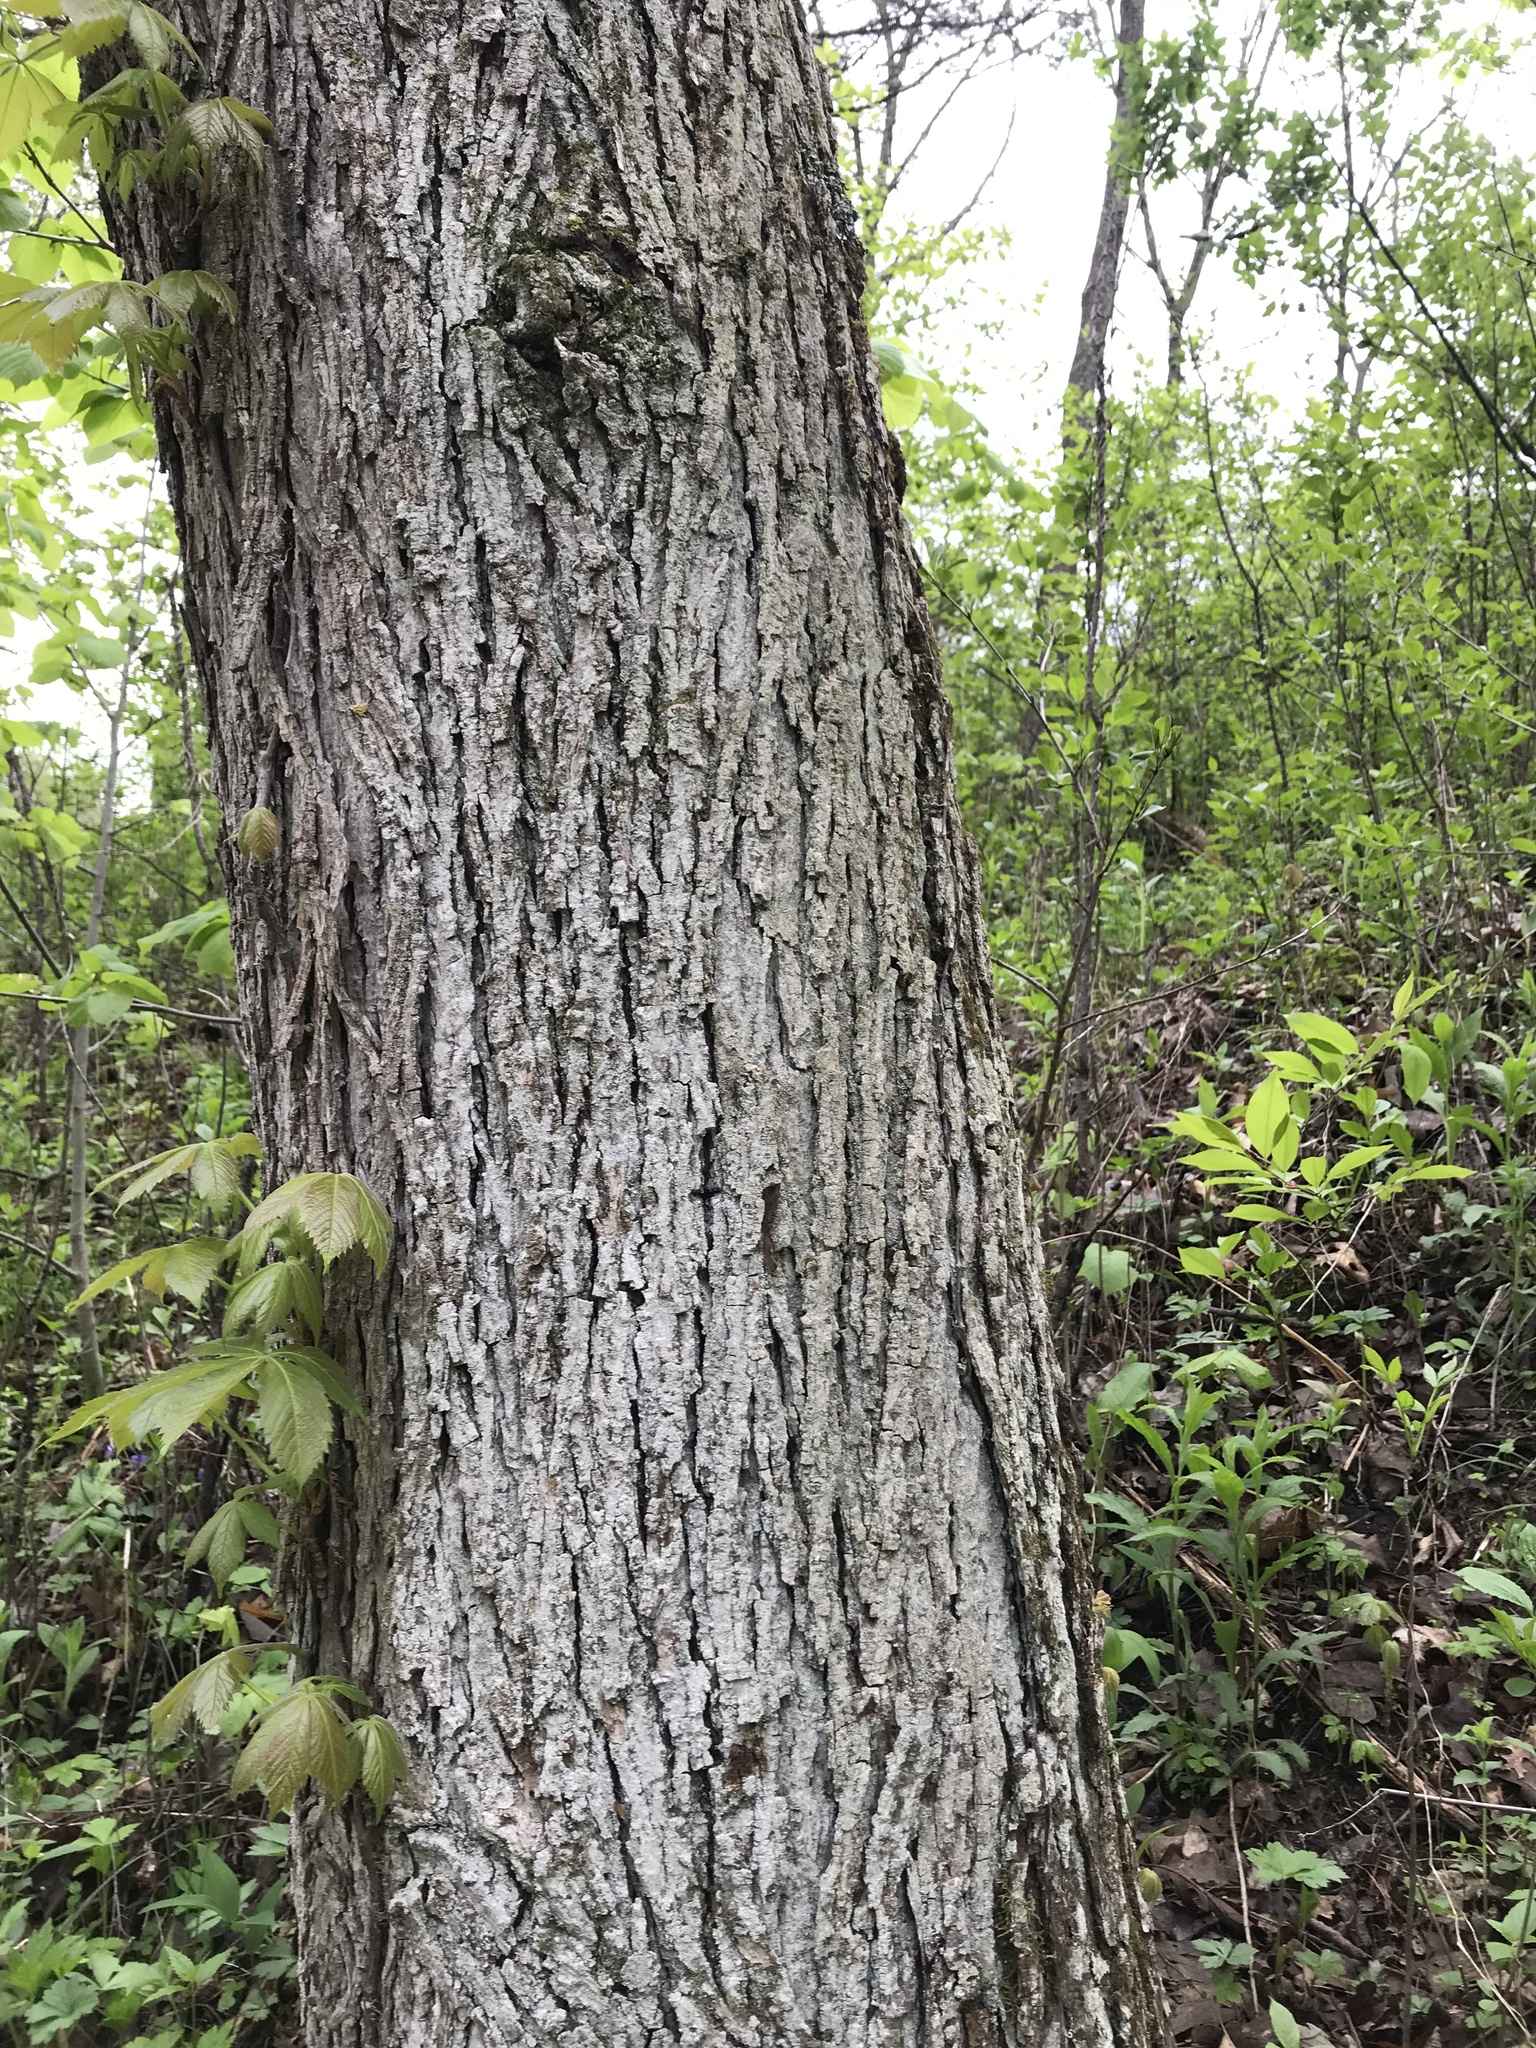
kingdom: Plantae
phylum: Tracheophyta
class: Magnoliopsida
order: Fagales
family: Juglandaceae
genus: Carya
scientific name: Carya ovata
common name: Shagbark hickory
